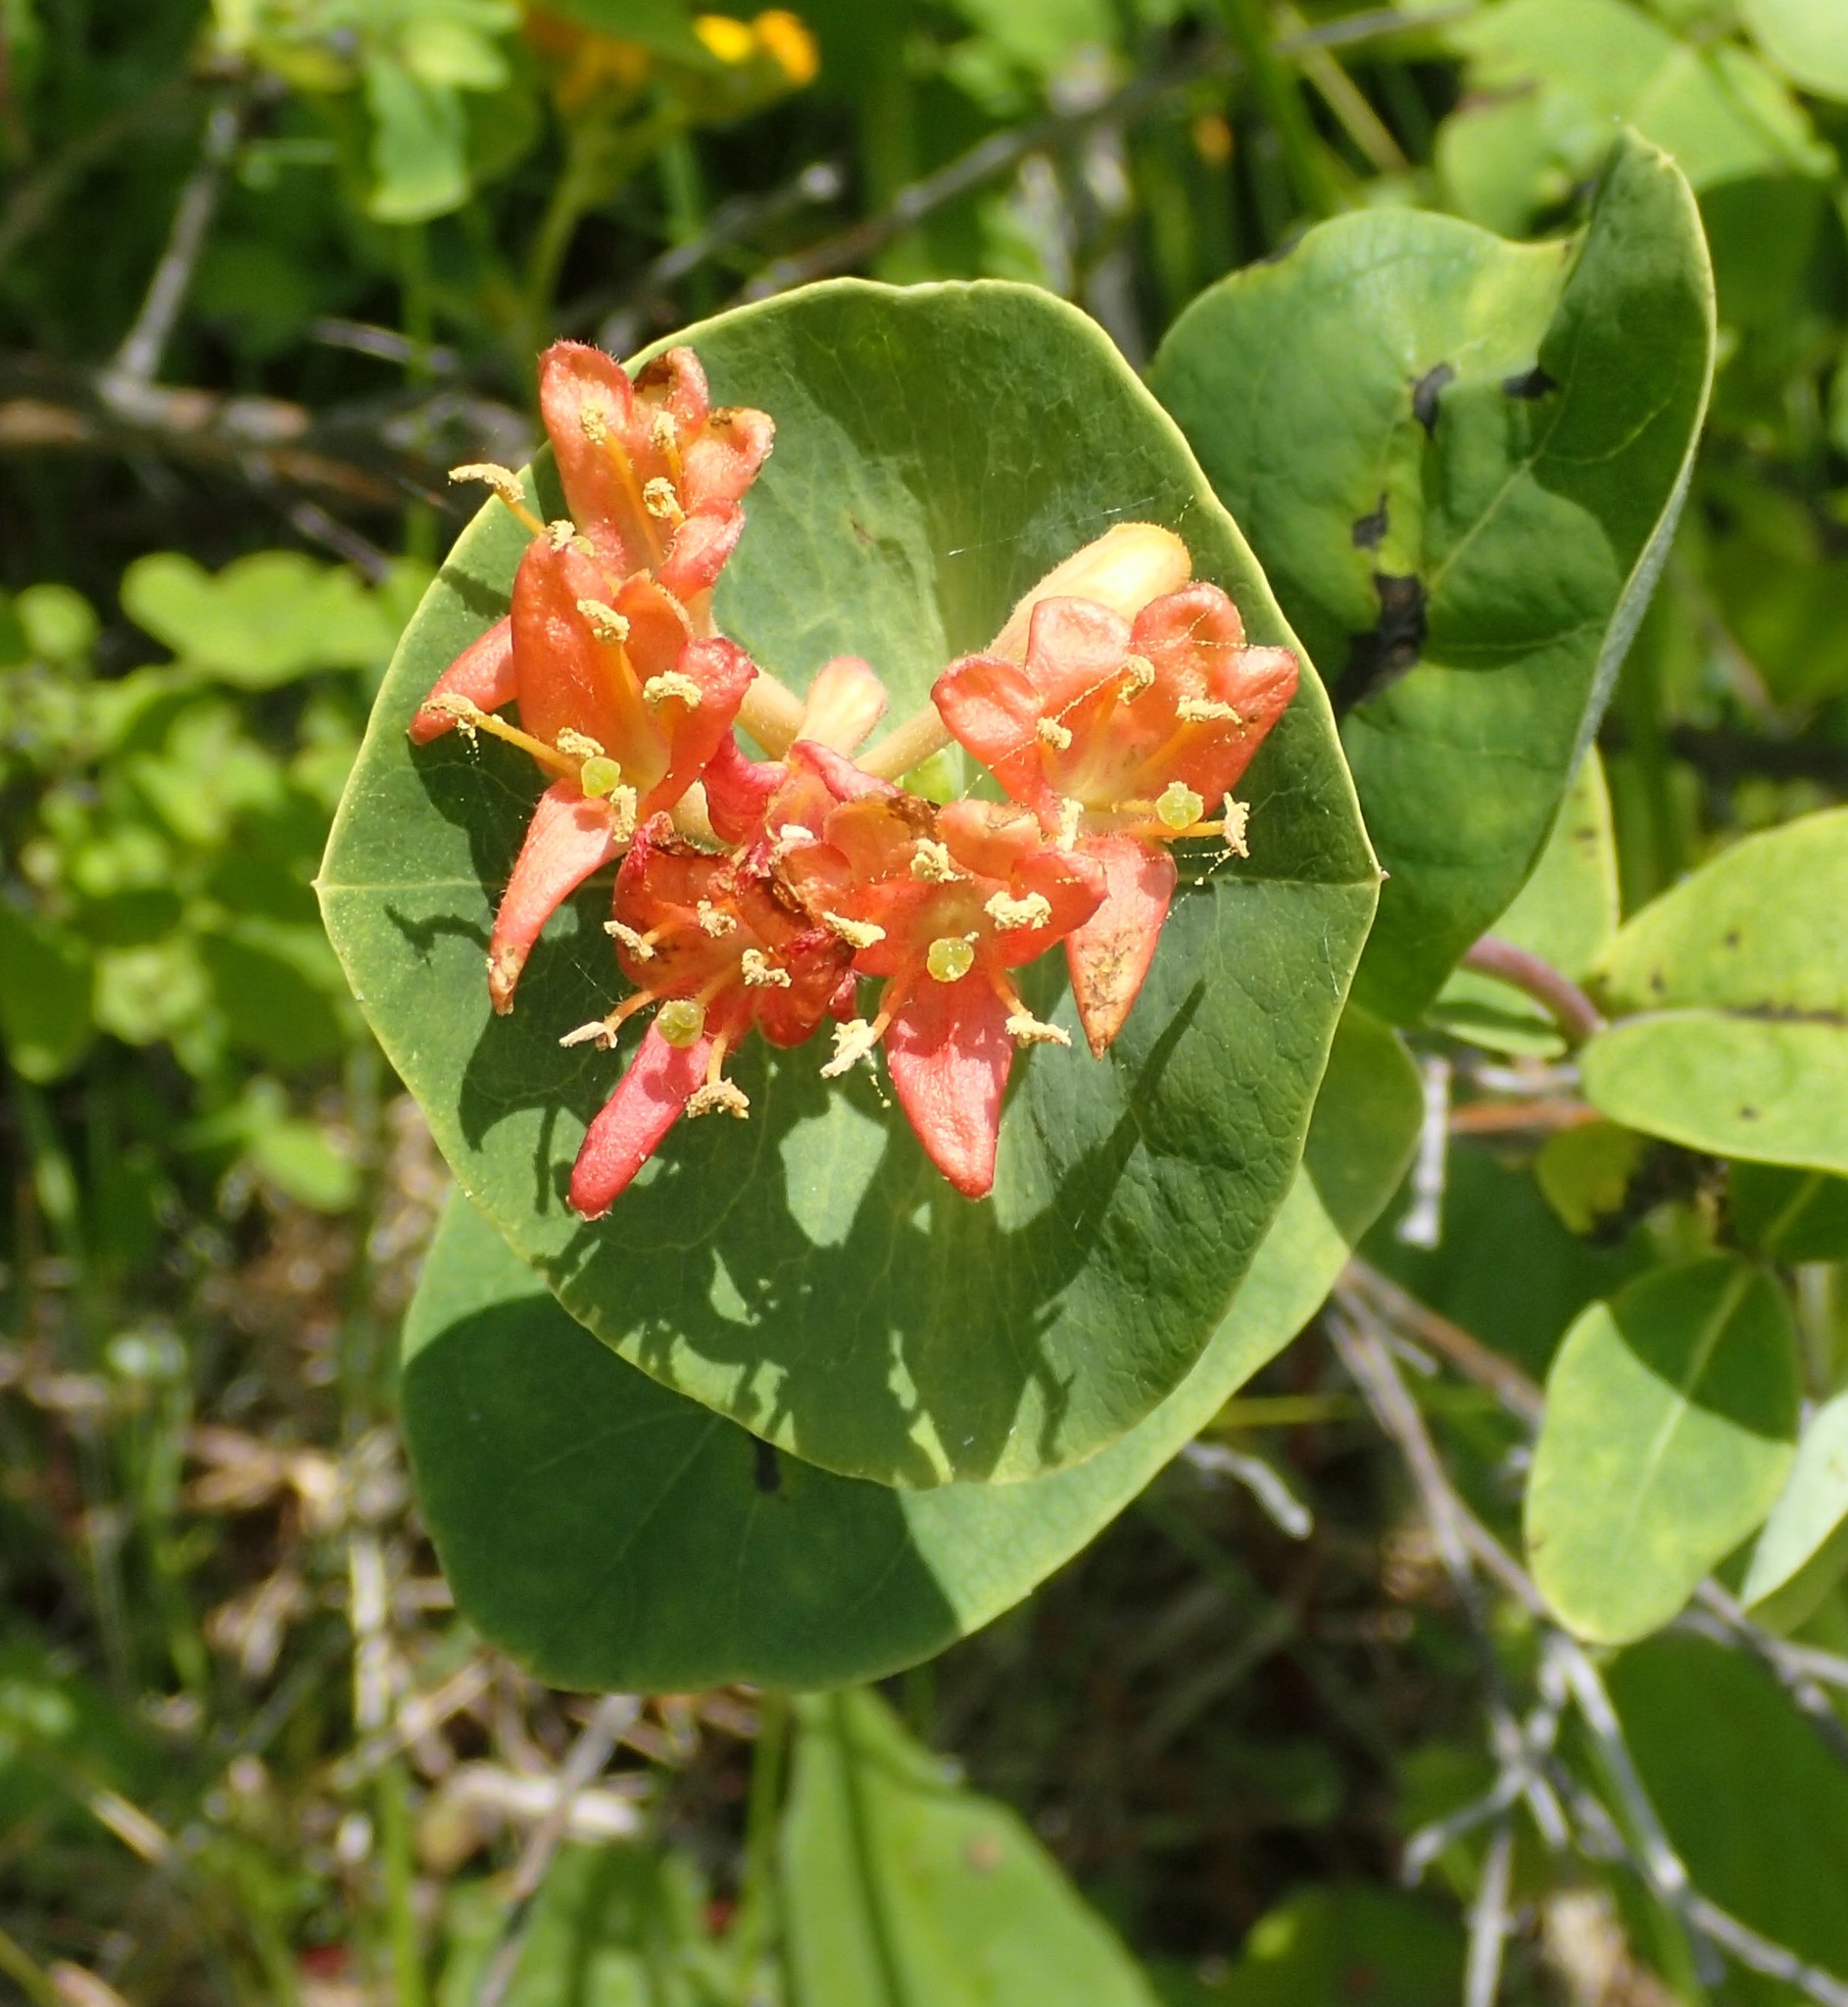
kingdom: Plantae
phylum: Tracheophyta
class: Magnoliopsida
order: Dipsacales
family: Caprifoliaceae
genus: Lonicera
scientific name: Lonicera dioica
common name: Limber honeysuckle
